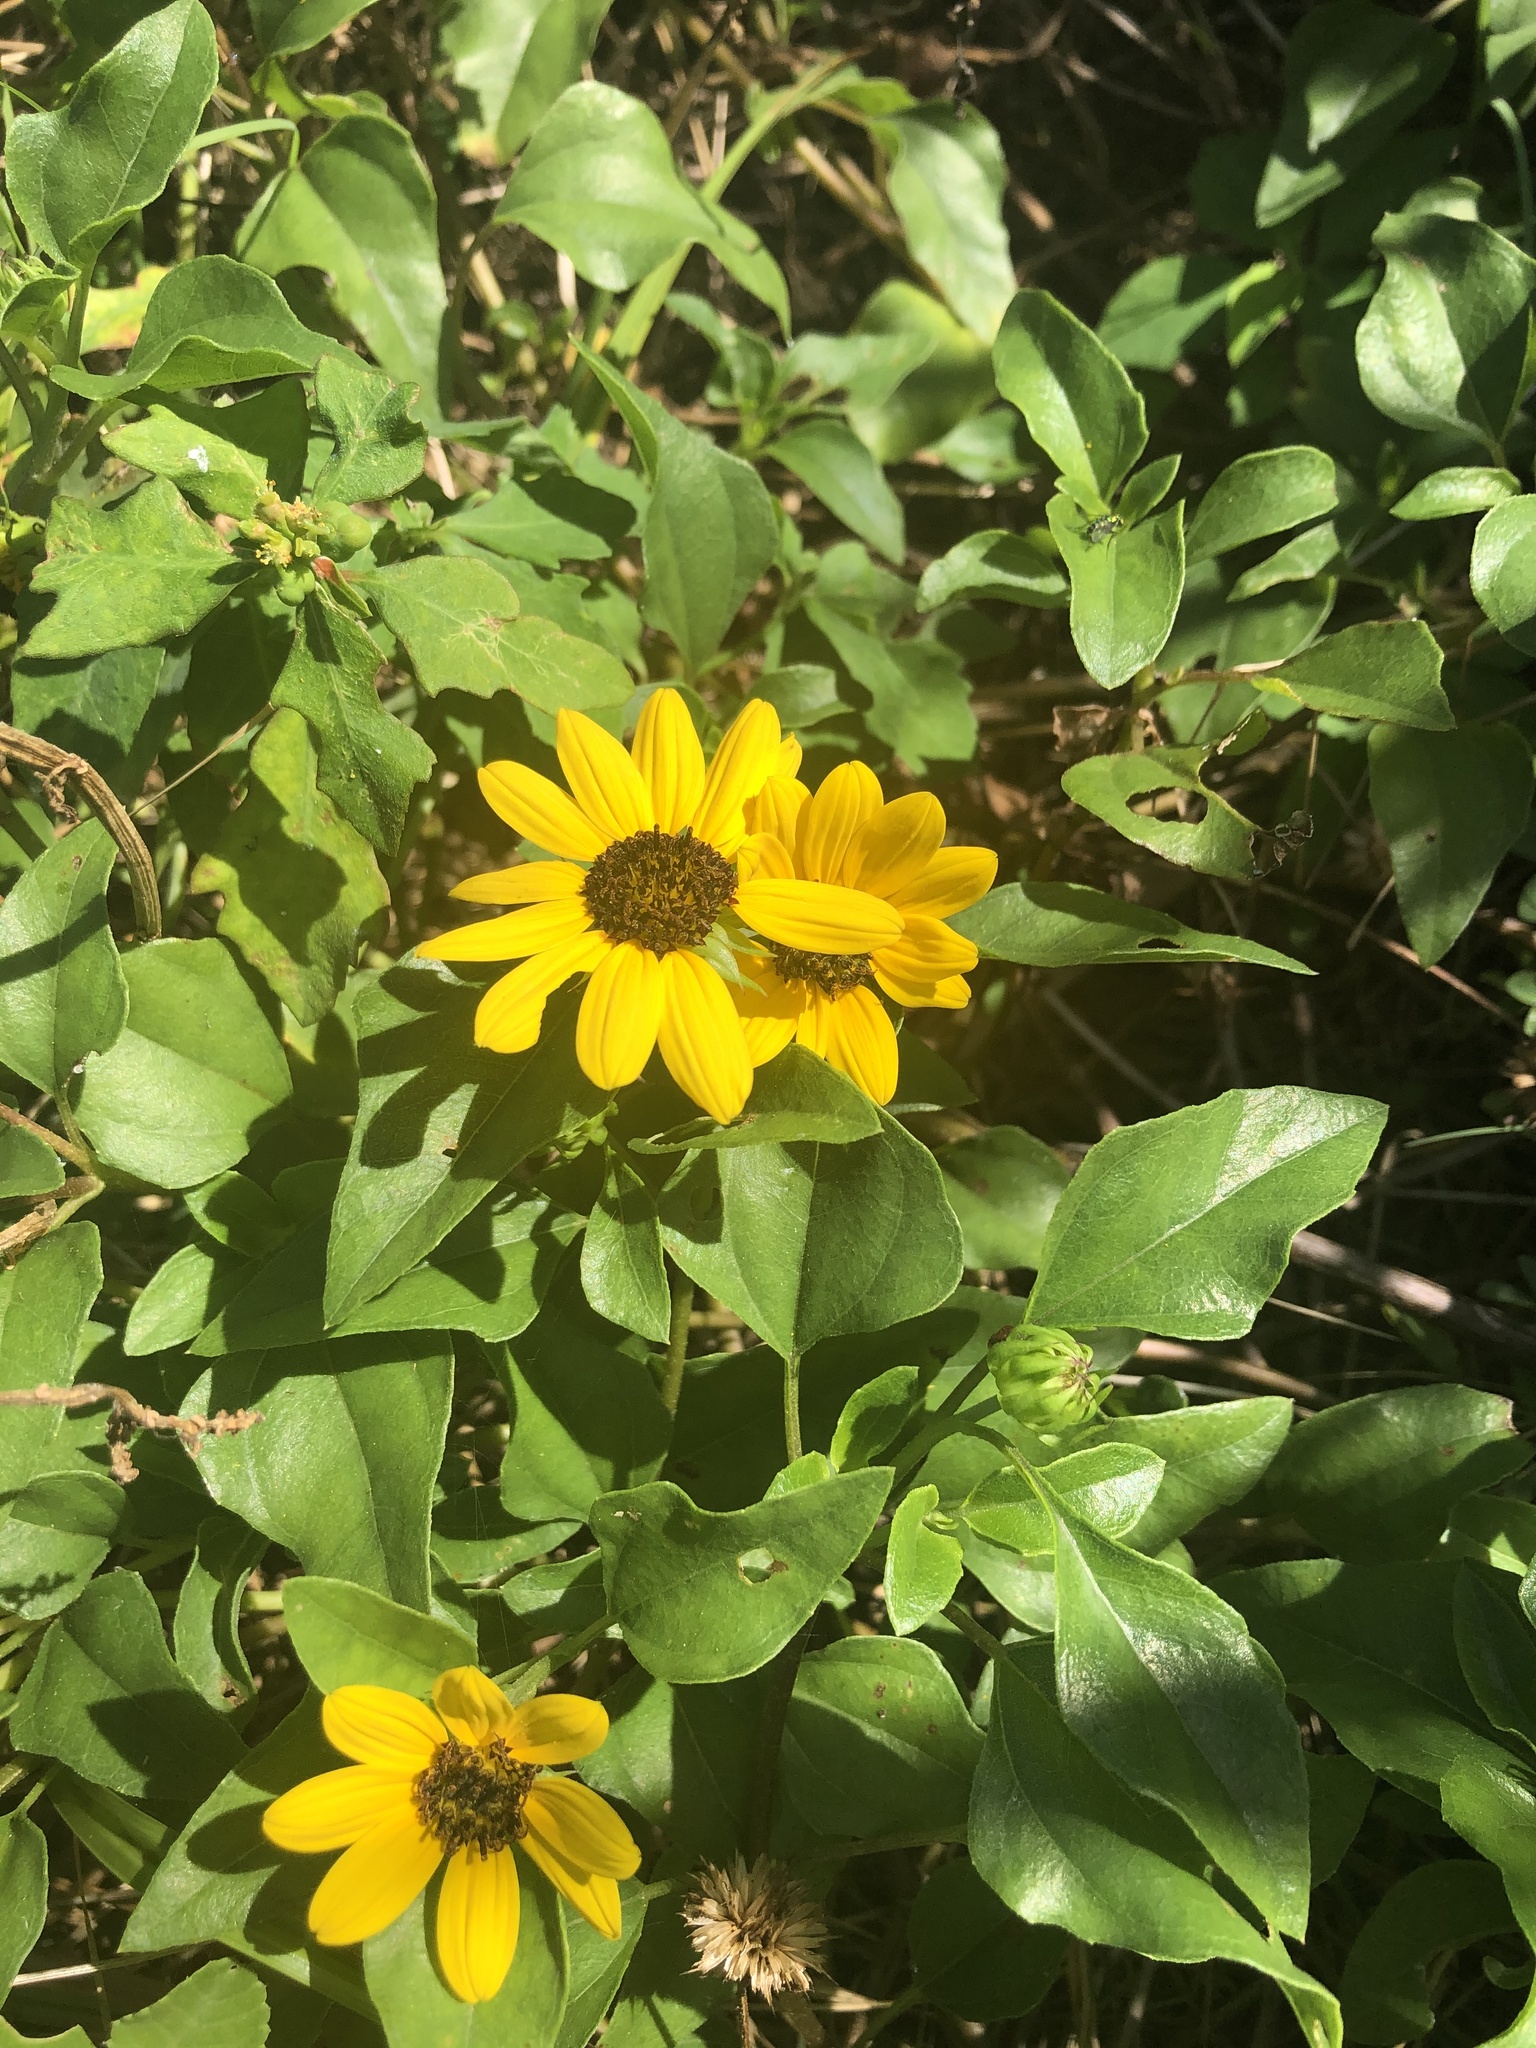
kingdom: Plantae
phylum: Tracheophyta
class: Magnoliopsida
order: Asterales
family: Asteraceae
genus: Helianthus
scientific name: Helianthus debilis
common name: Weak sunflower
